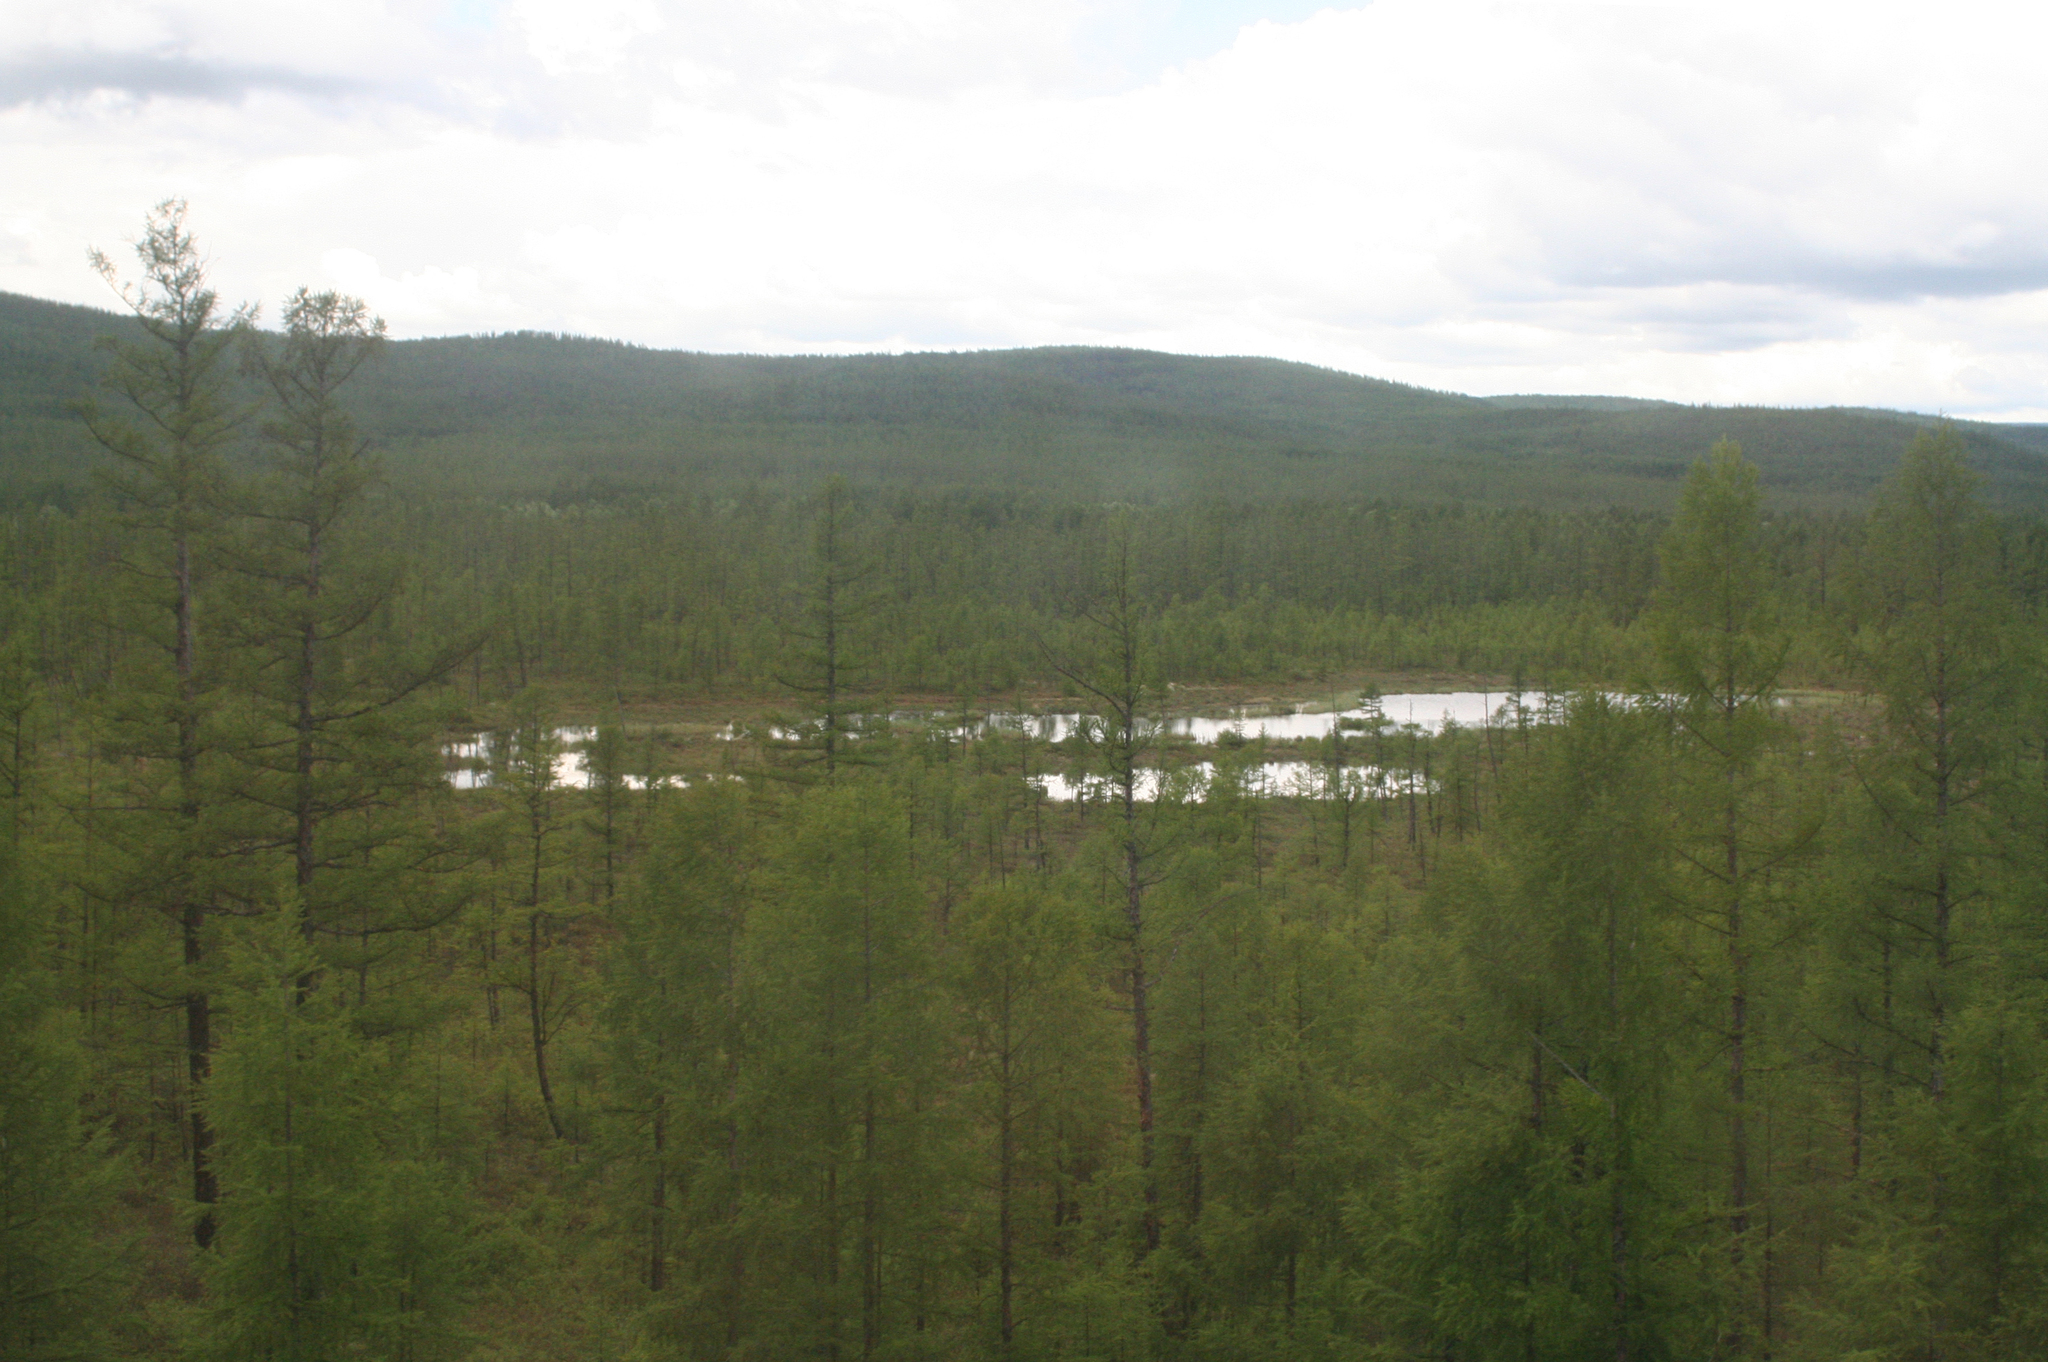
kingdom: Plantae
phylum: Tracheophyta
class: Pinopsida
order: Pinales
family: Pinaceae
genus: Larix
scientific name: Larix gmelinii
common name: Dahurian larch
